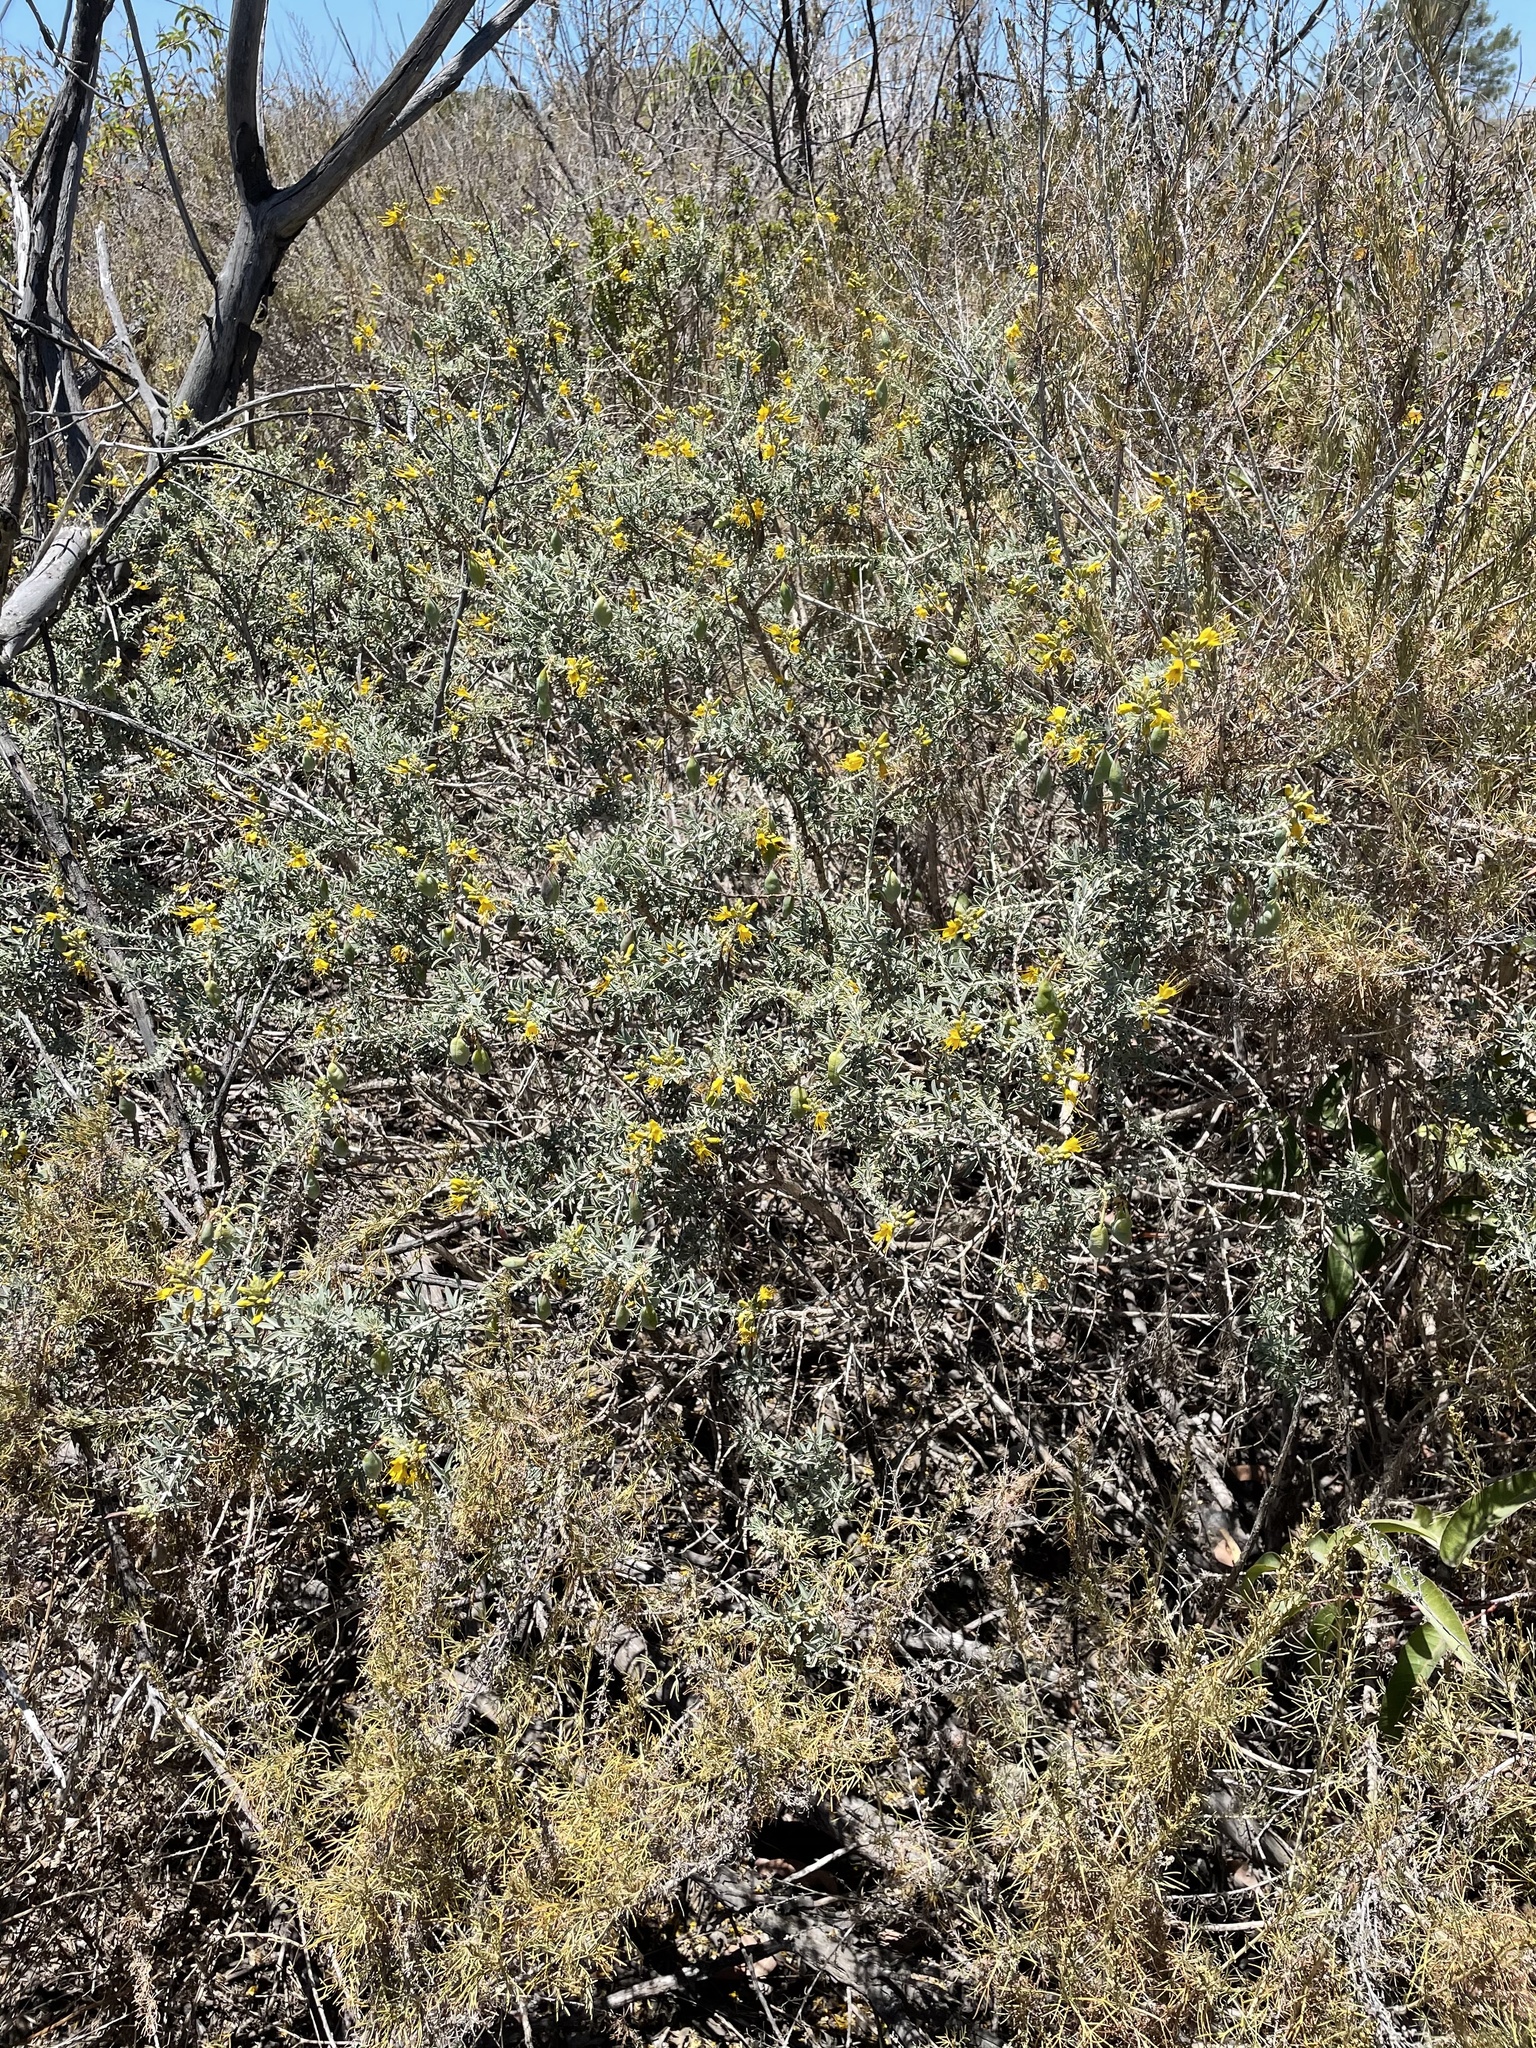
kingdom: Plantae
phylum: Tracheophyta
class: Magnoliopsida
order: Brassicales
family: Cleomaceae
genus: Cleomella
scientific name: Cleomella arborea
